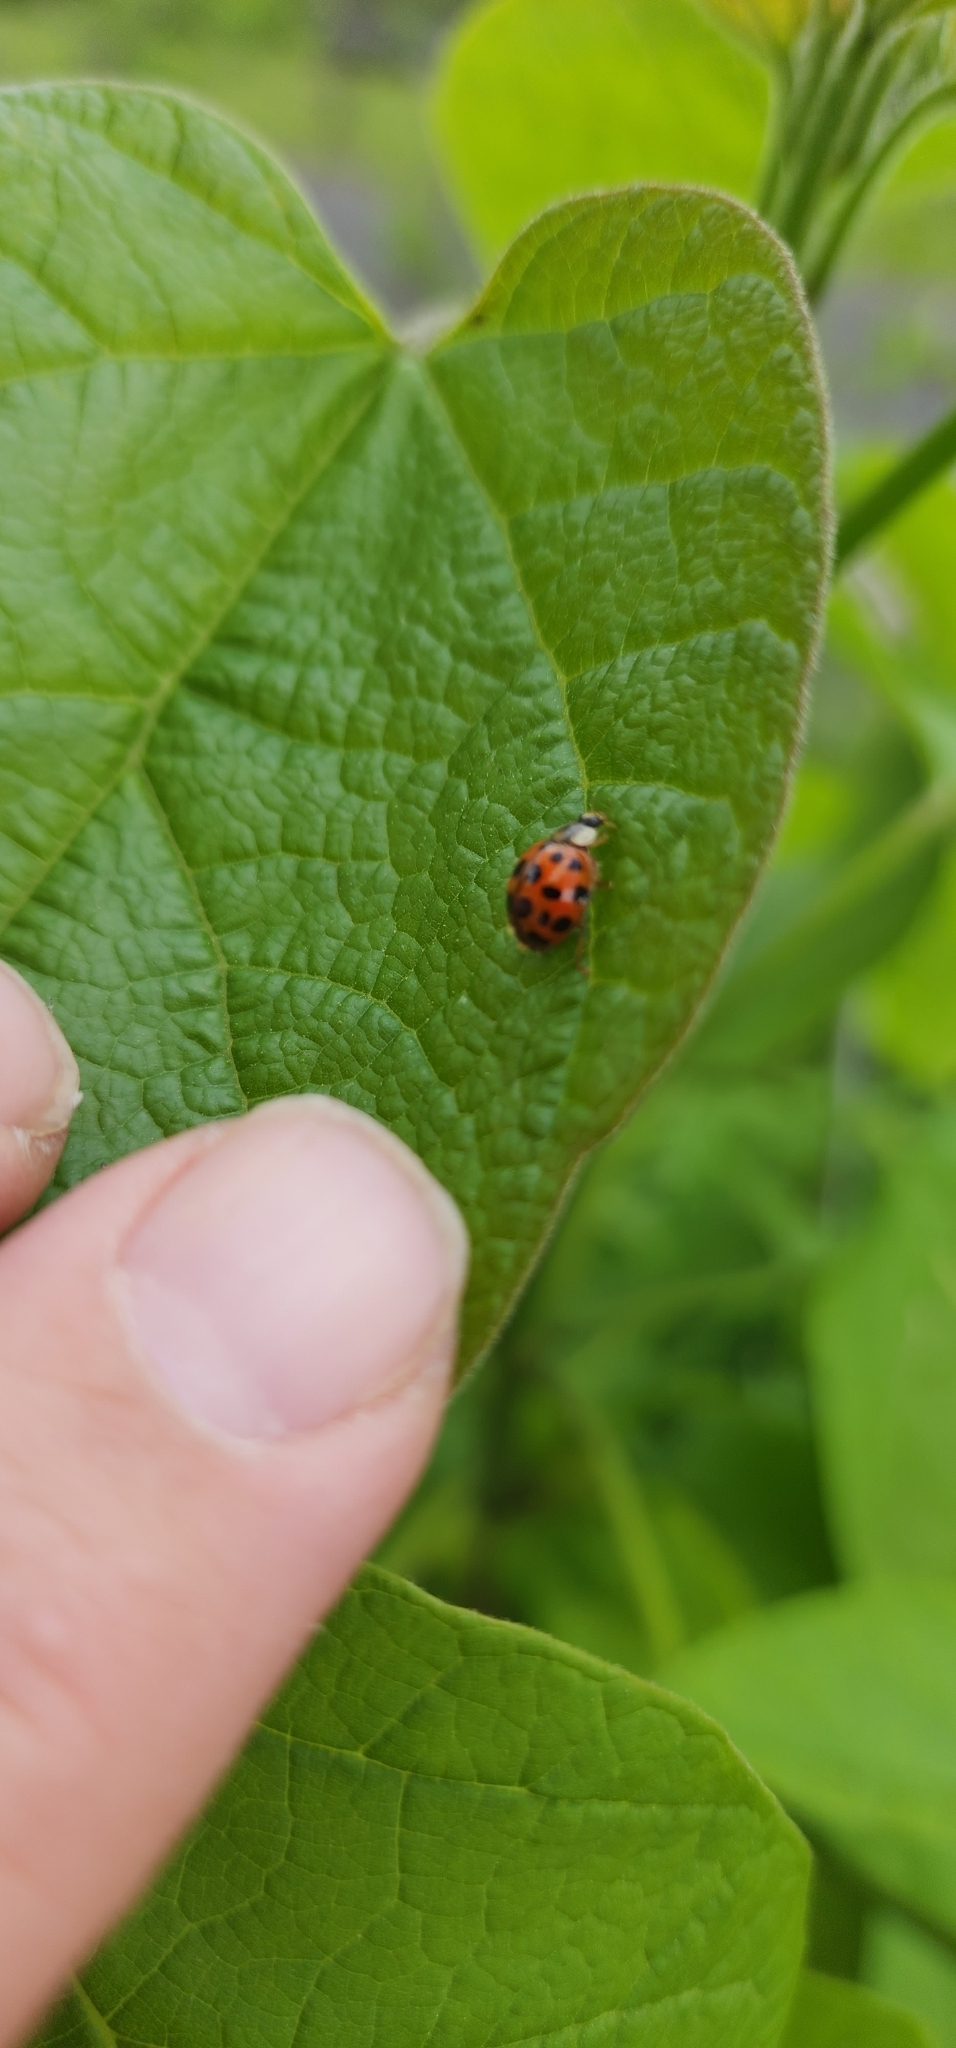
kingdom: Animalia
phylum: Arthropoda
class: Insecta
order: Coleoptera
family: Coccinellidae
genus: Harmonia
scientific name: Harmonia axyridis
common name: Harlequin ladybird
